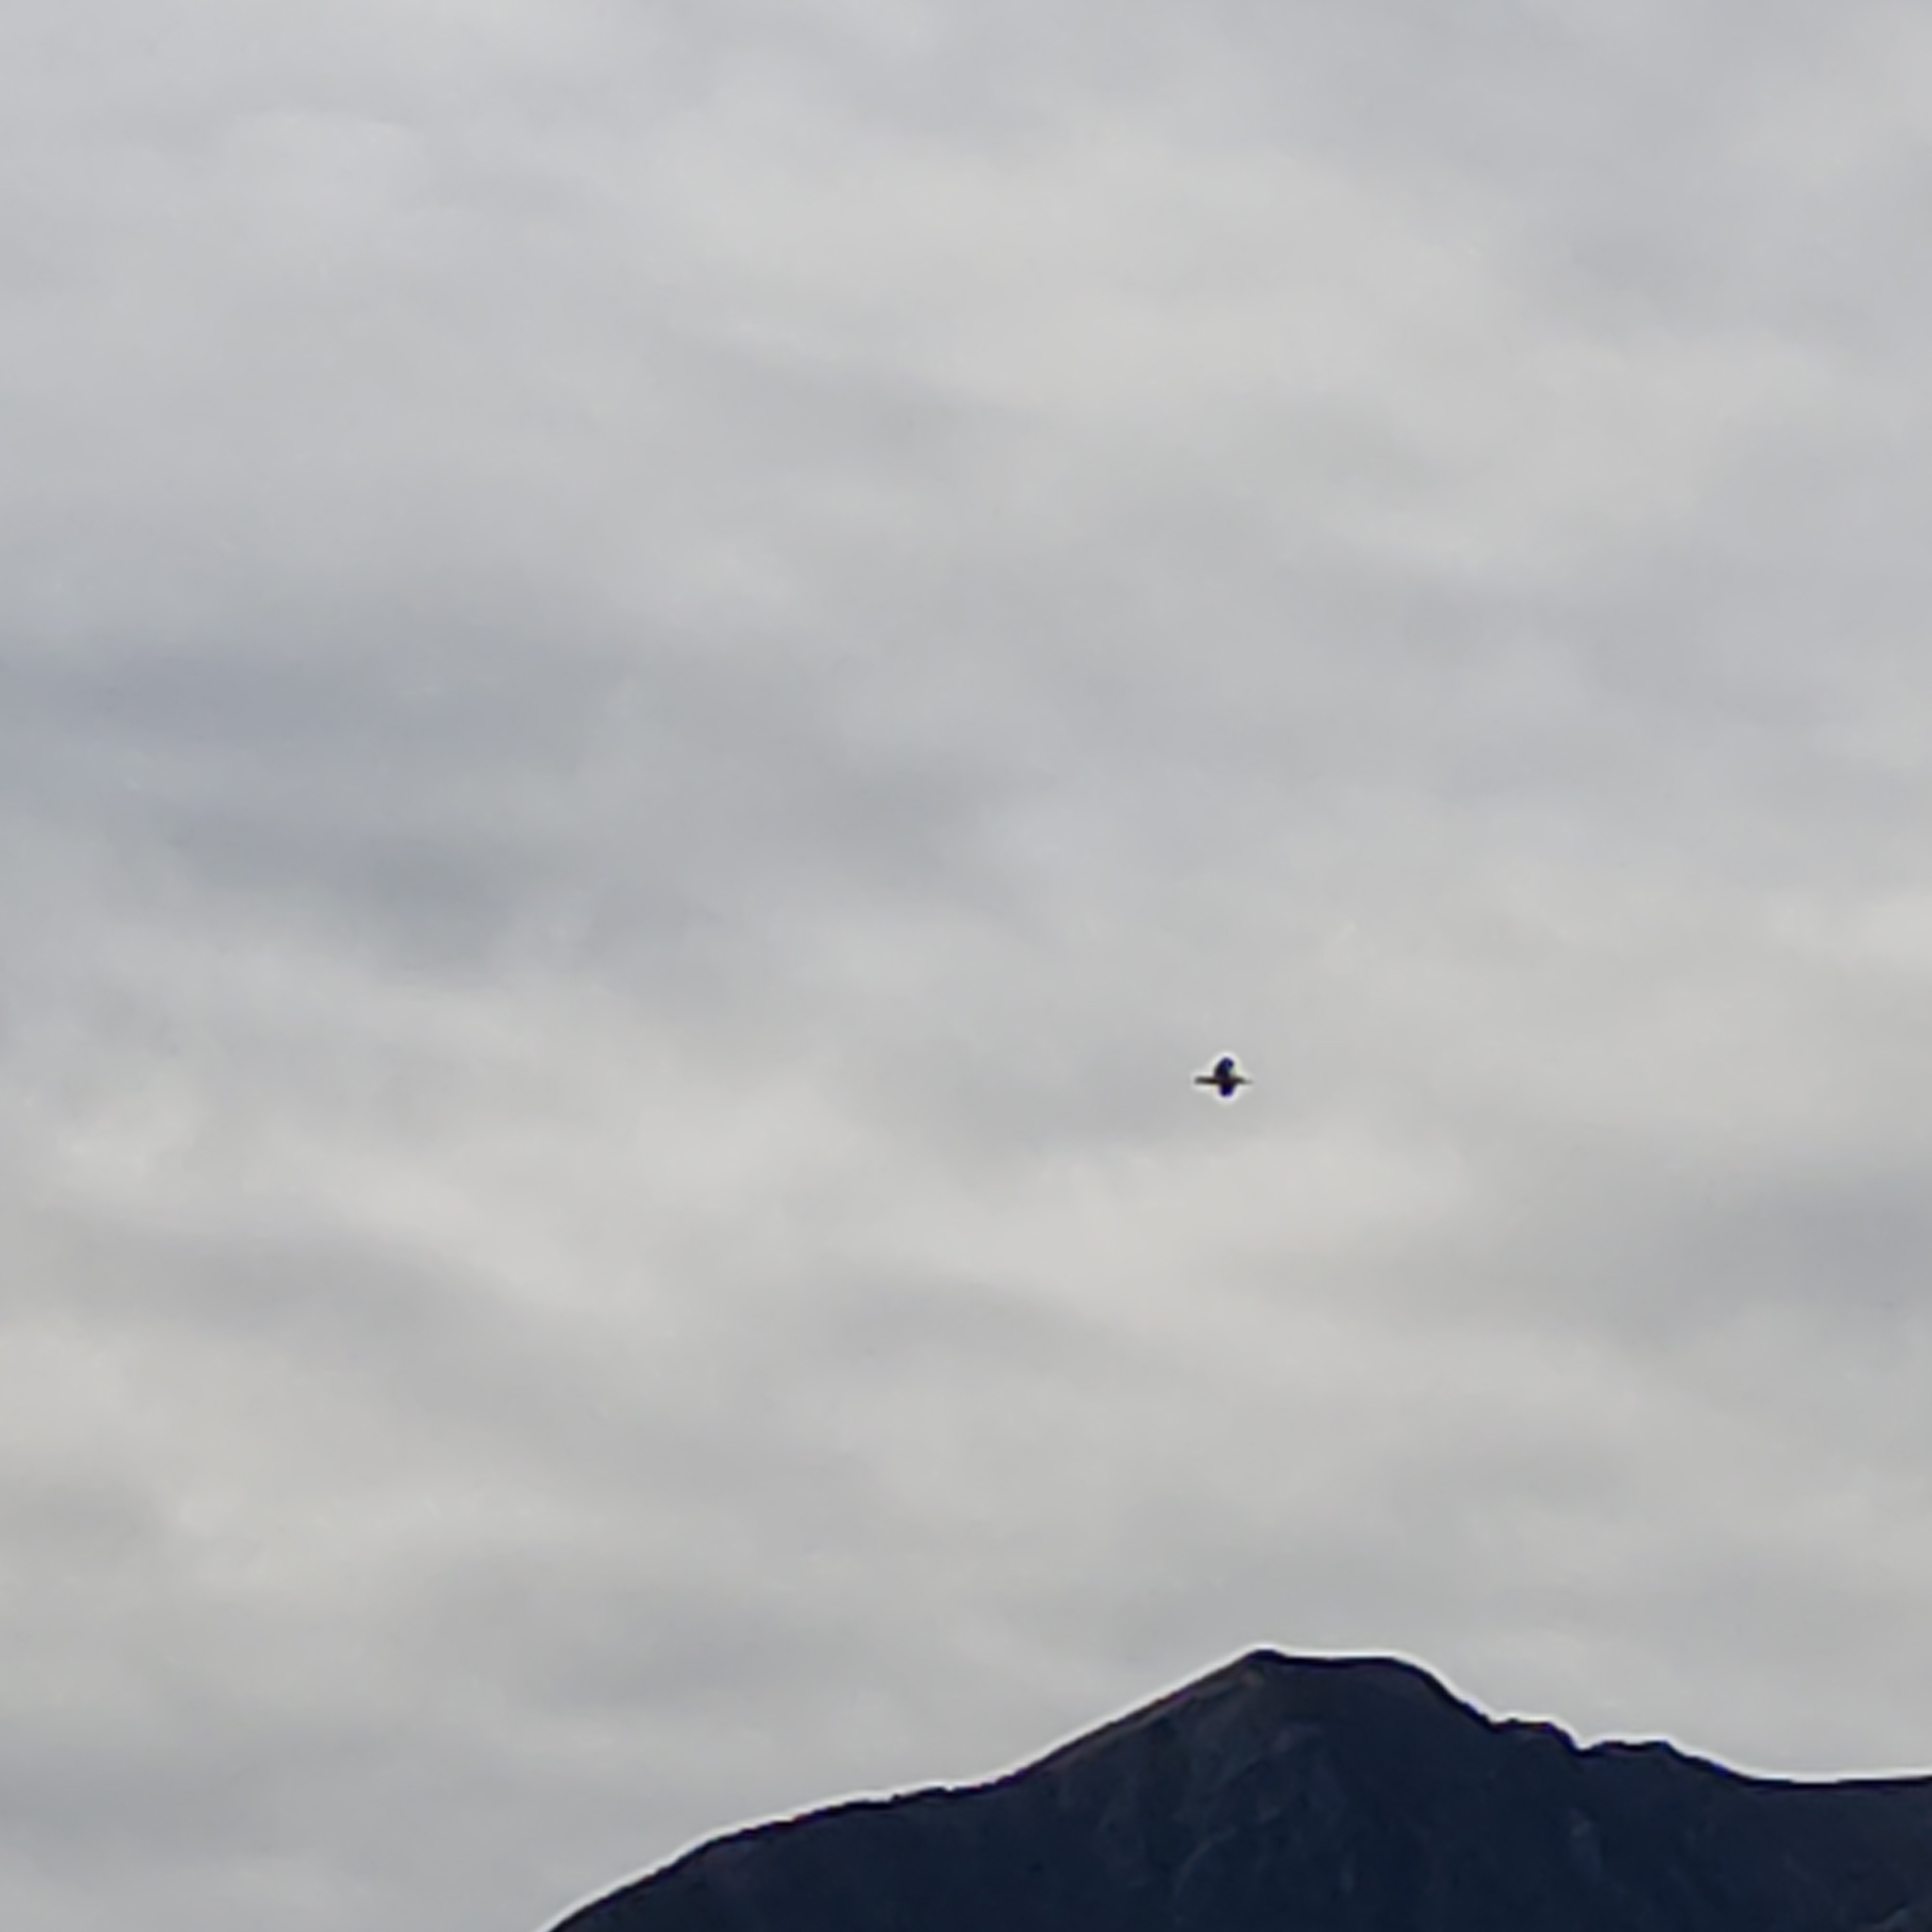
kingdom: Animalia
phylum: Chordata
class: Aves
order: Charadriiformes
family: Laridae
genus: Larus
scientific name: Larus dominicanus
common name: Kelp gull
